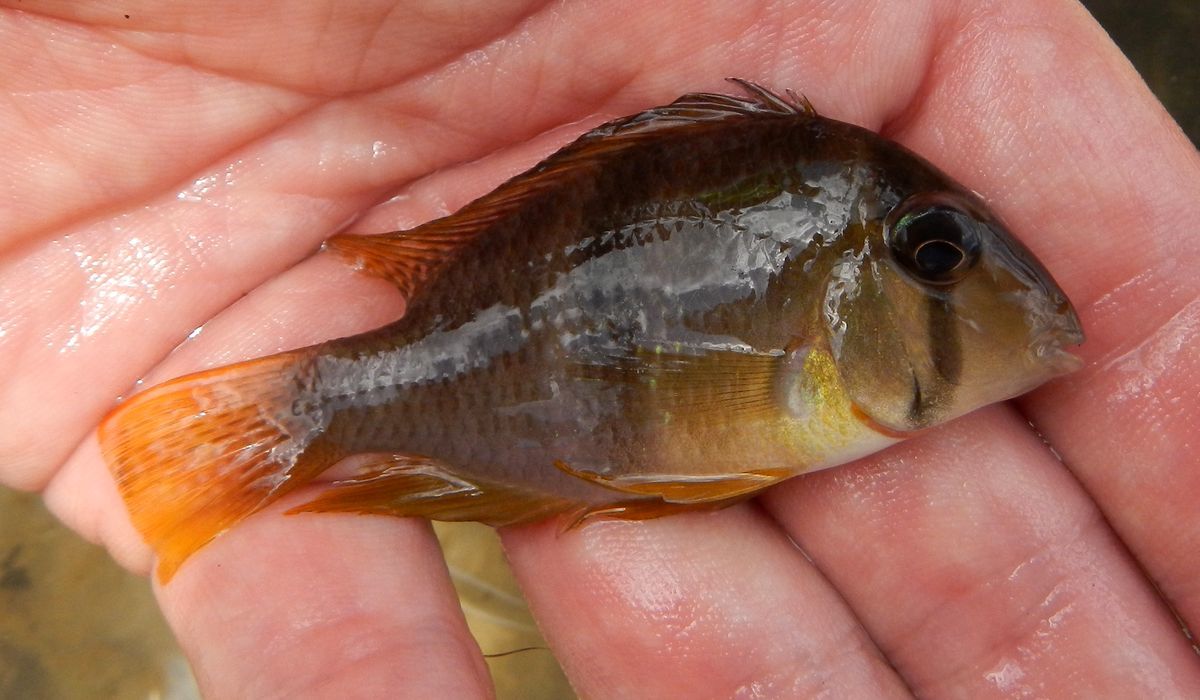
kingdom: Animalia
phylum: Chordata
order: Perciformes
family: Cichlidae
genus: Guianacara
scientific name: Guianacara geayi
